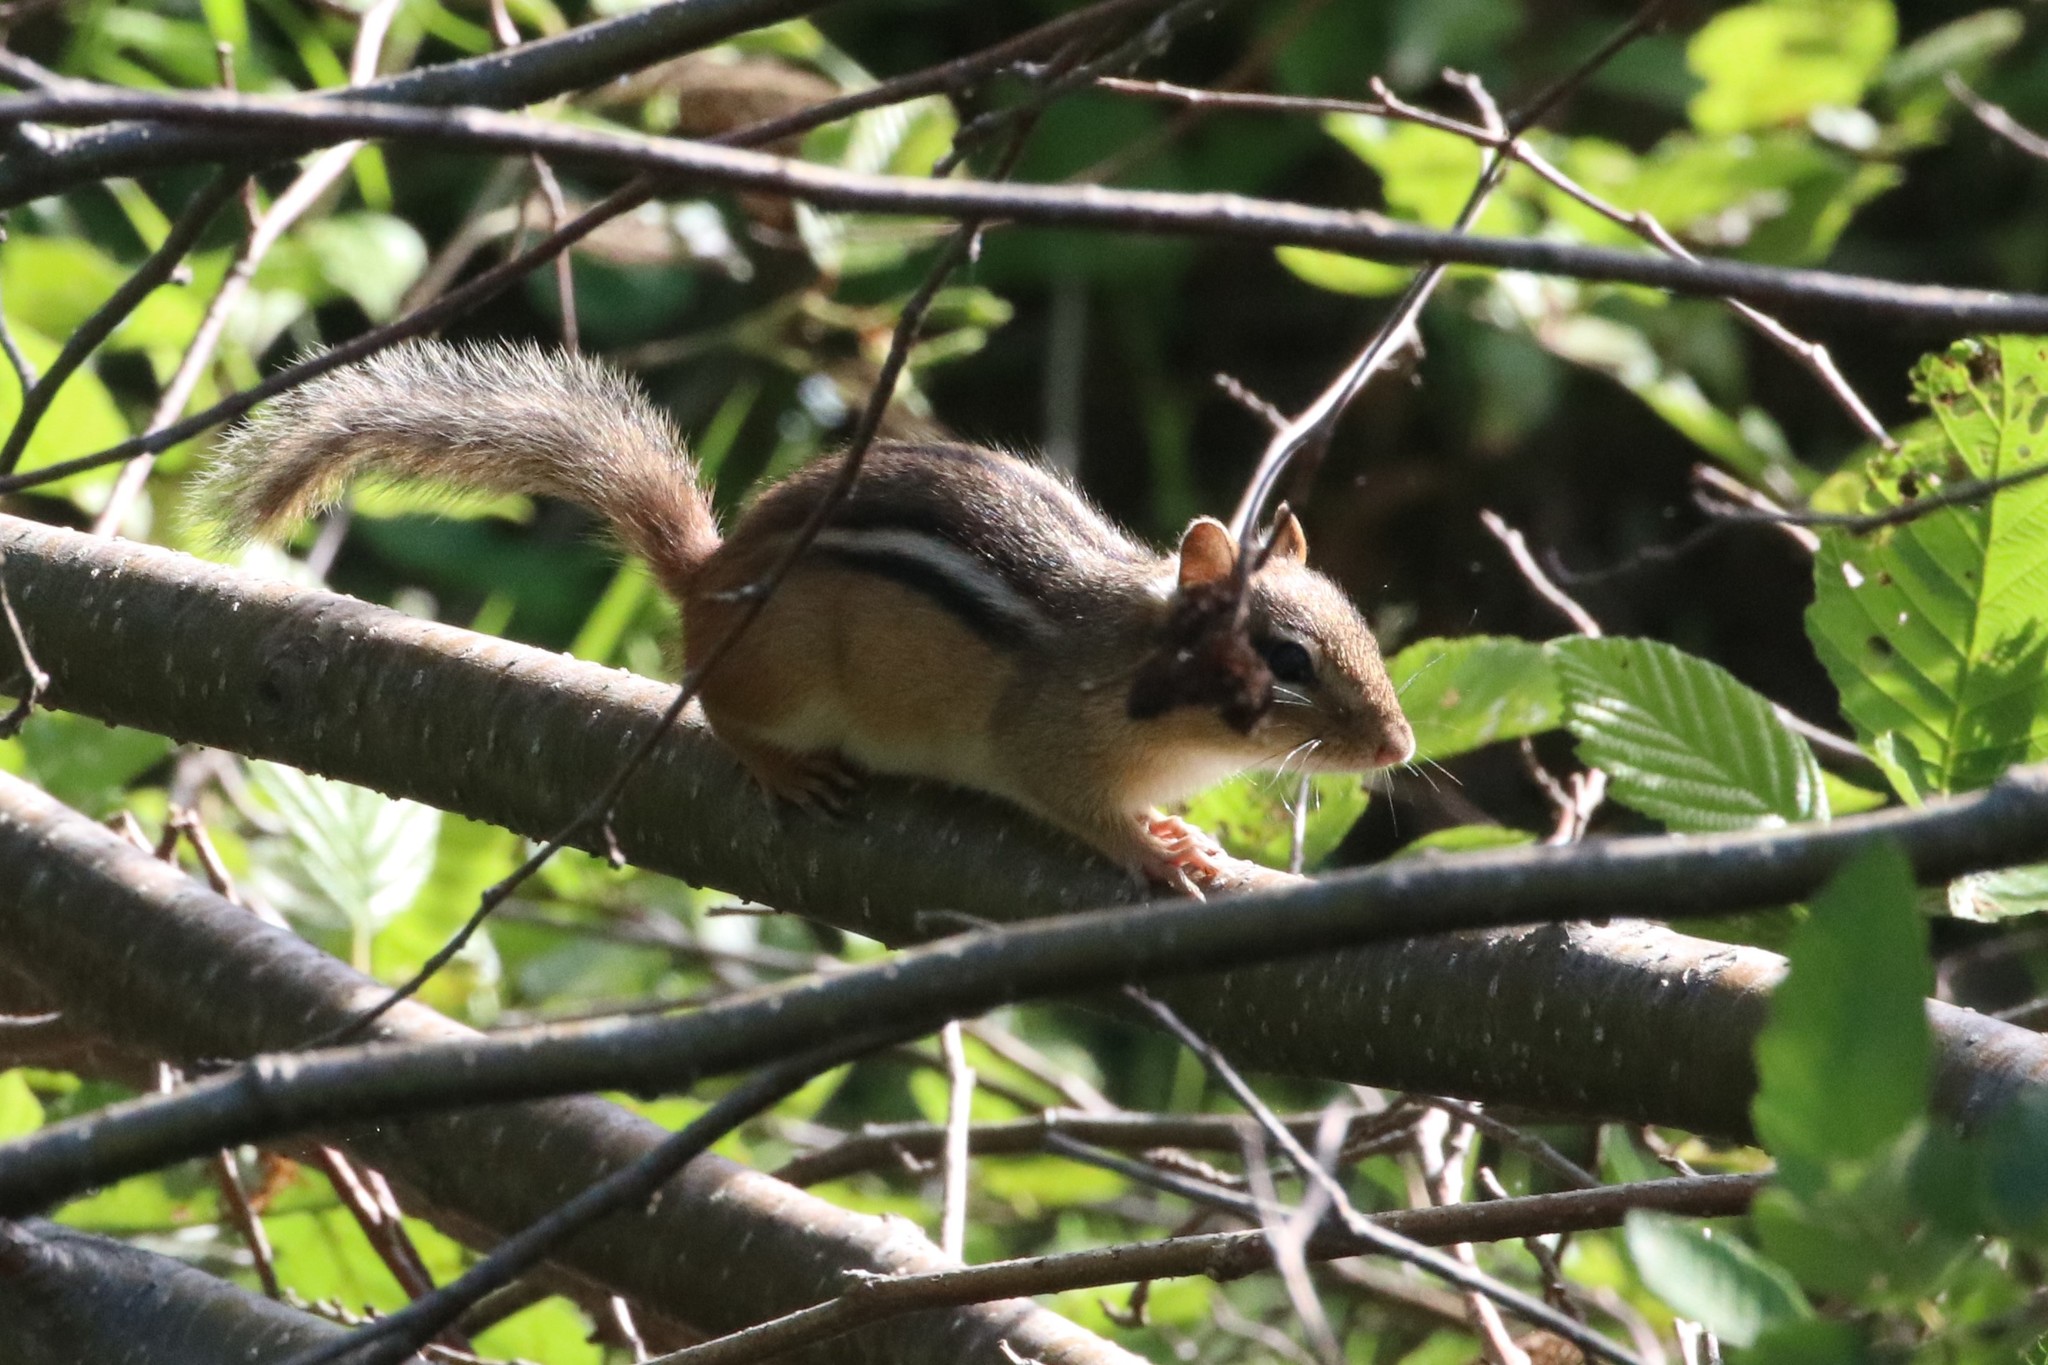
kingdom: Animalia
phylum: Chordata
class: Mammalia
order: Rodentia
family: Sciuridae
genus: Tamias
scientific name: Tamias striatus
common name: Eastern chipmunk
